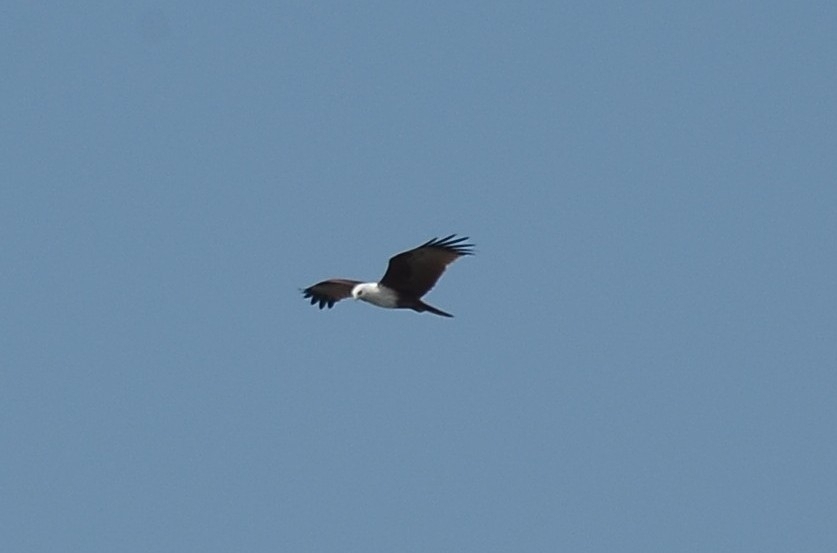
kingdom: Animalia
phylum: Chordata
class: Aves
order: Accipitriformes
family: Accipitridae
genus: Haliastur
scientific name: Haliastur indus
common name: Brahminy kite
